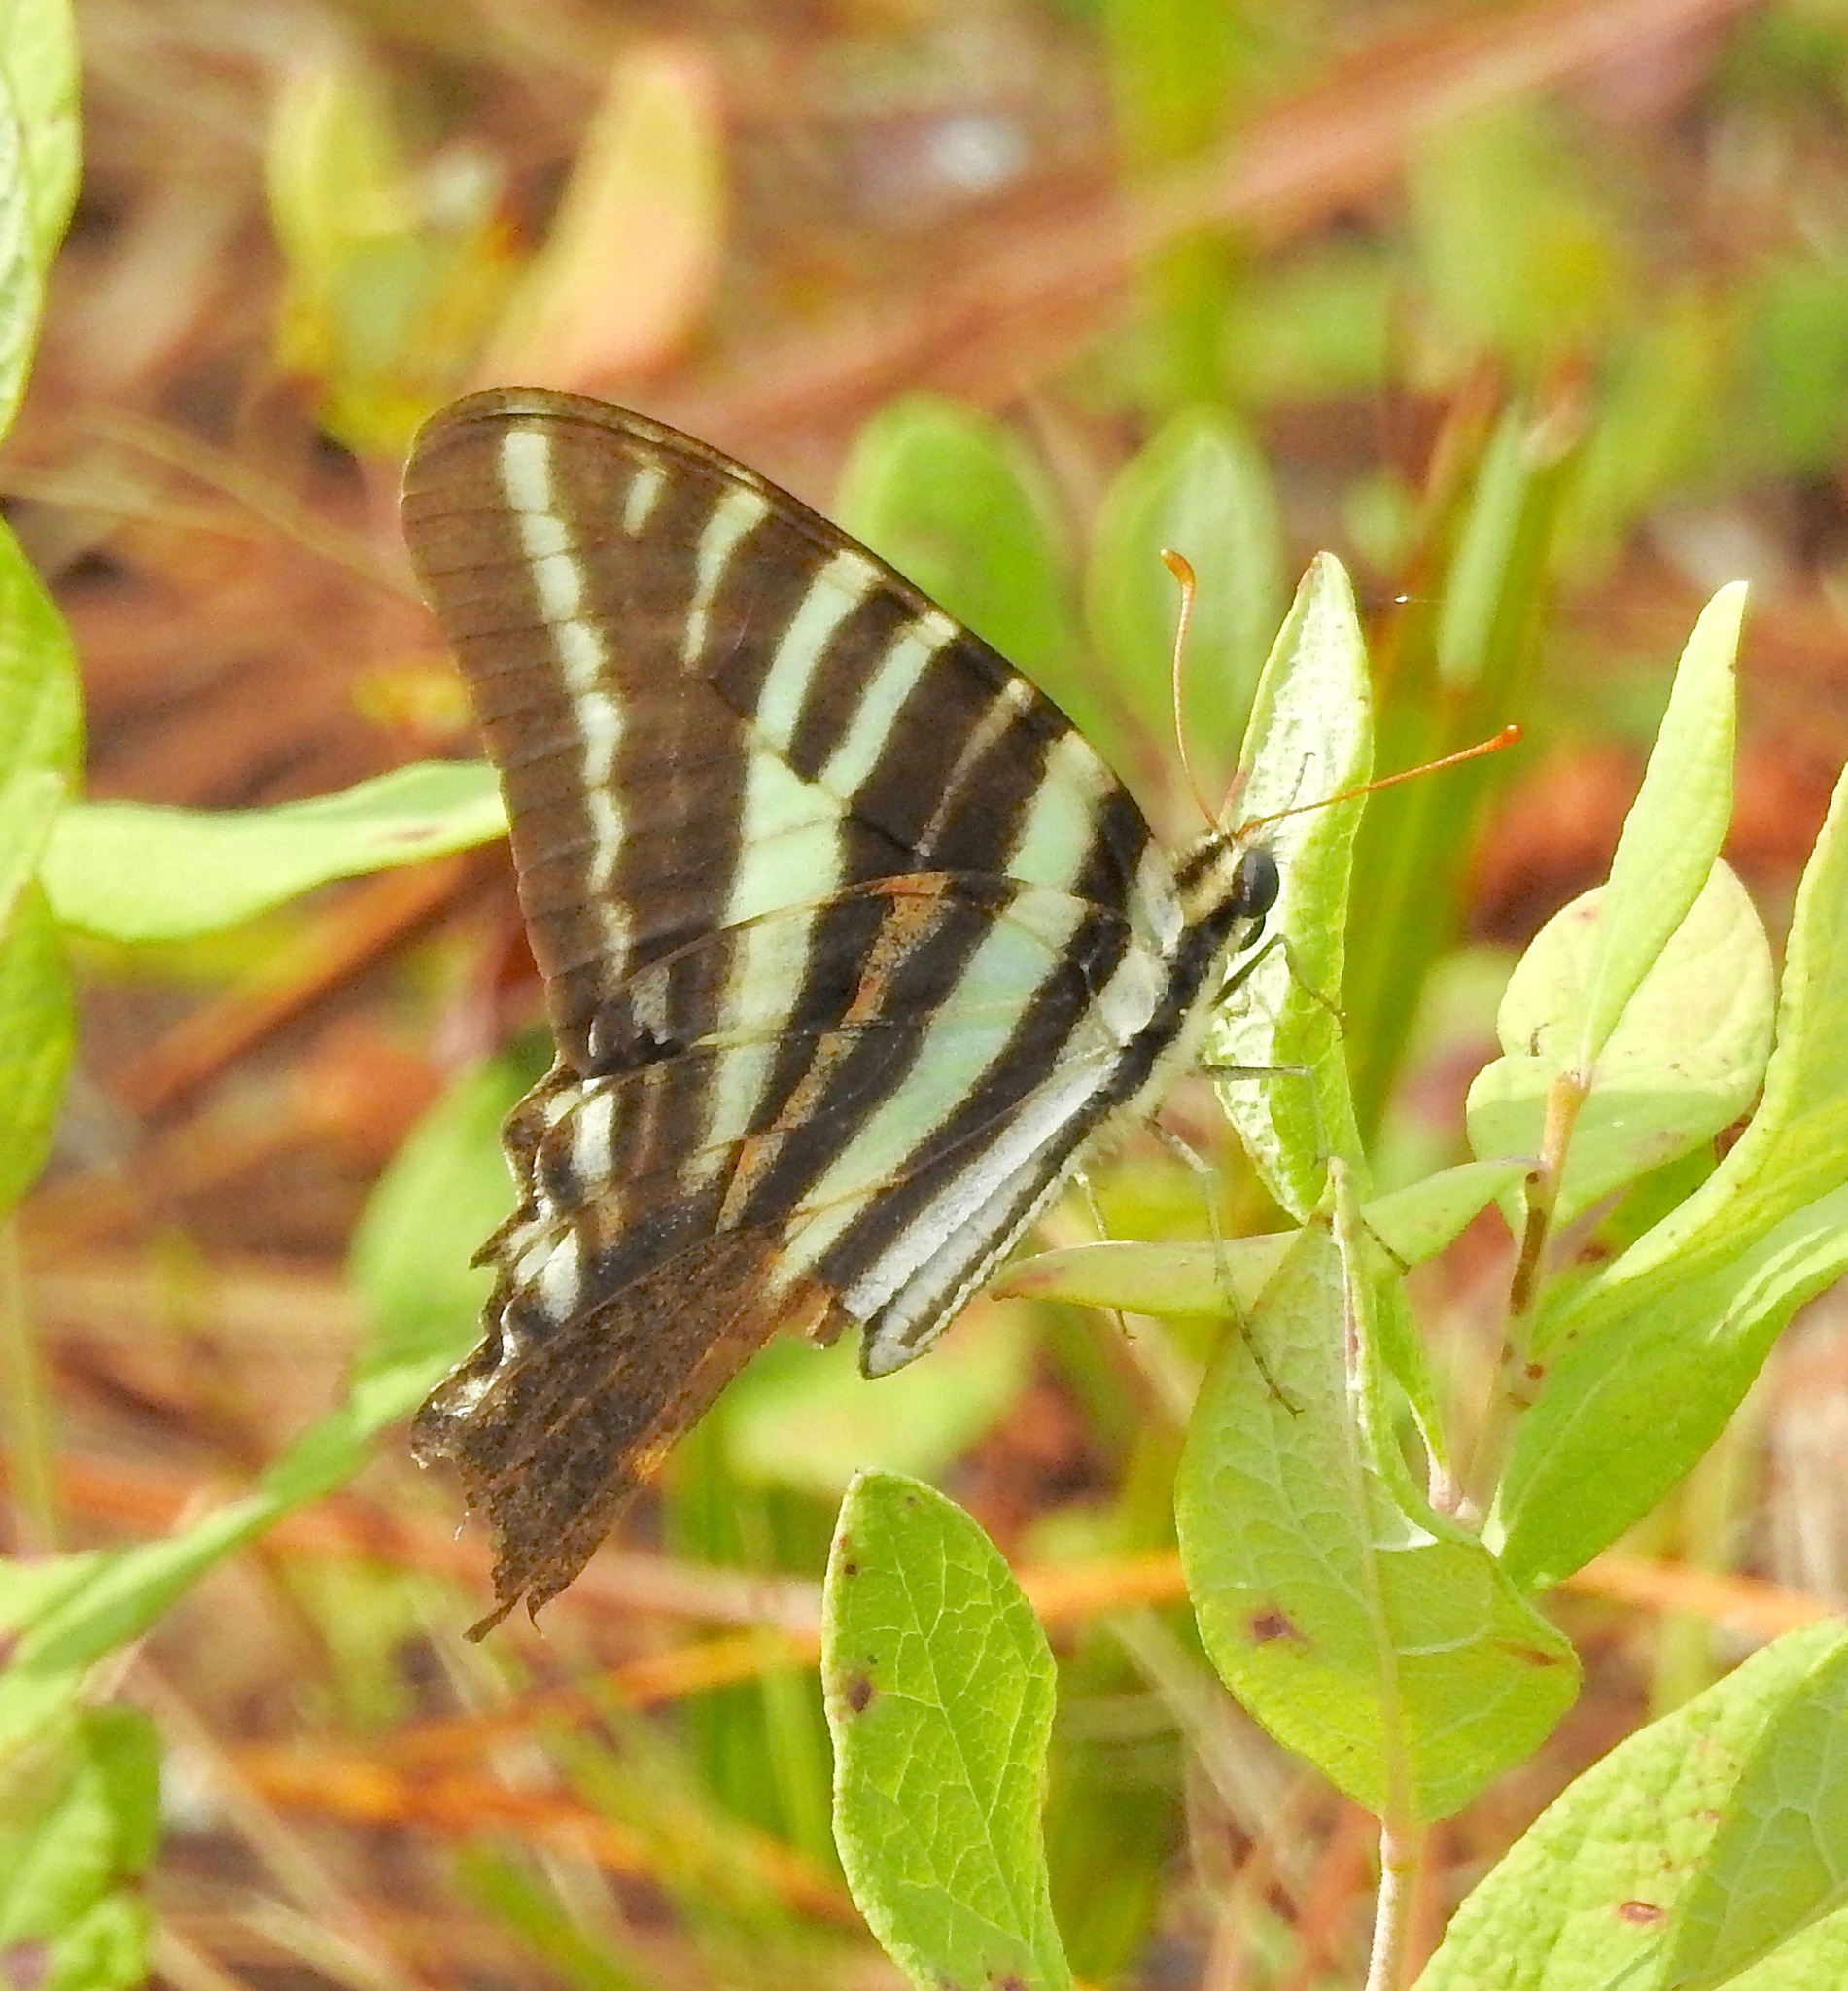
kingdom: Animalia
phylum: Arthropoda
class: Insecta
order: Lepidoptera
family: Papilionidae
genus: Protographium
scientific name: Protographium marcellus
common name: Zebra swallowtail
